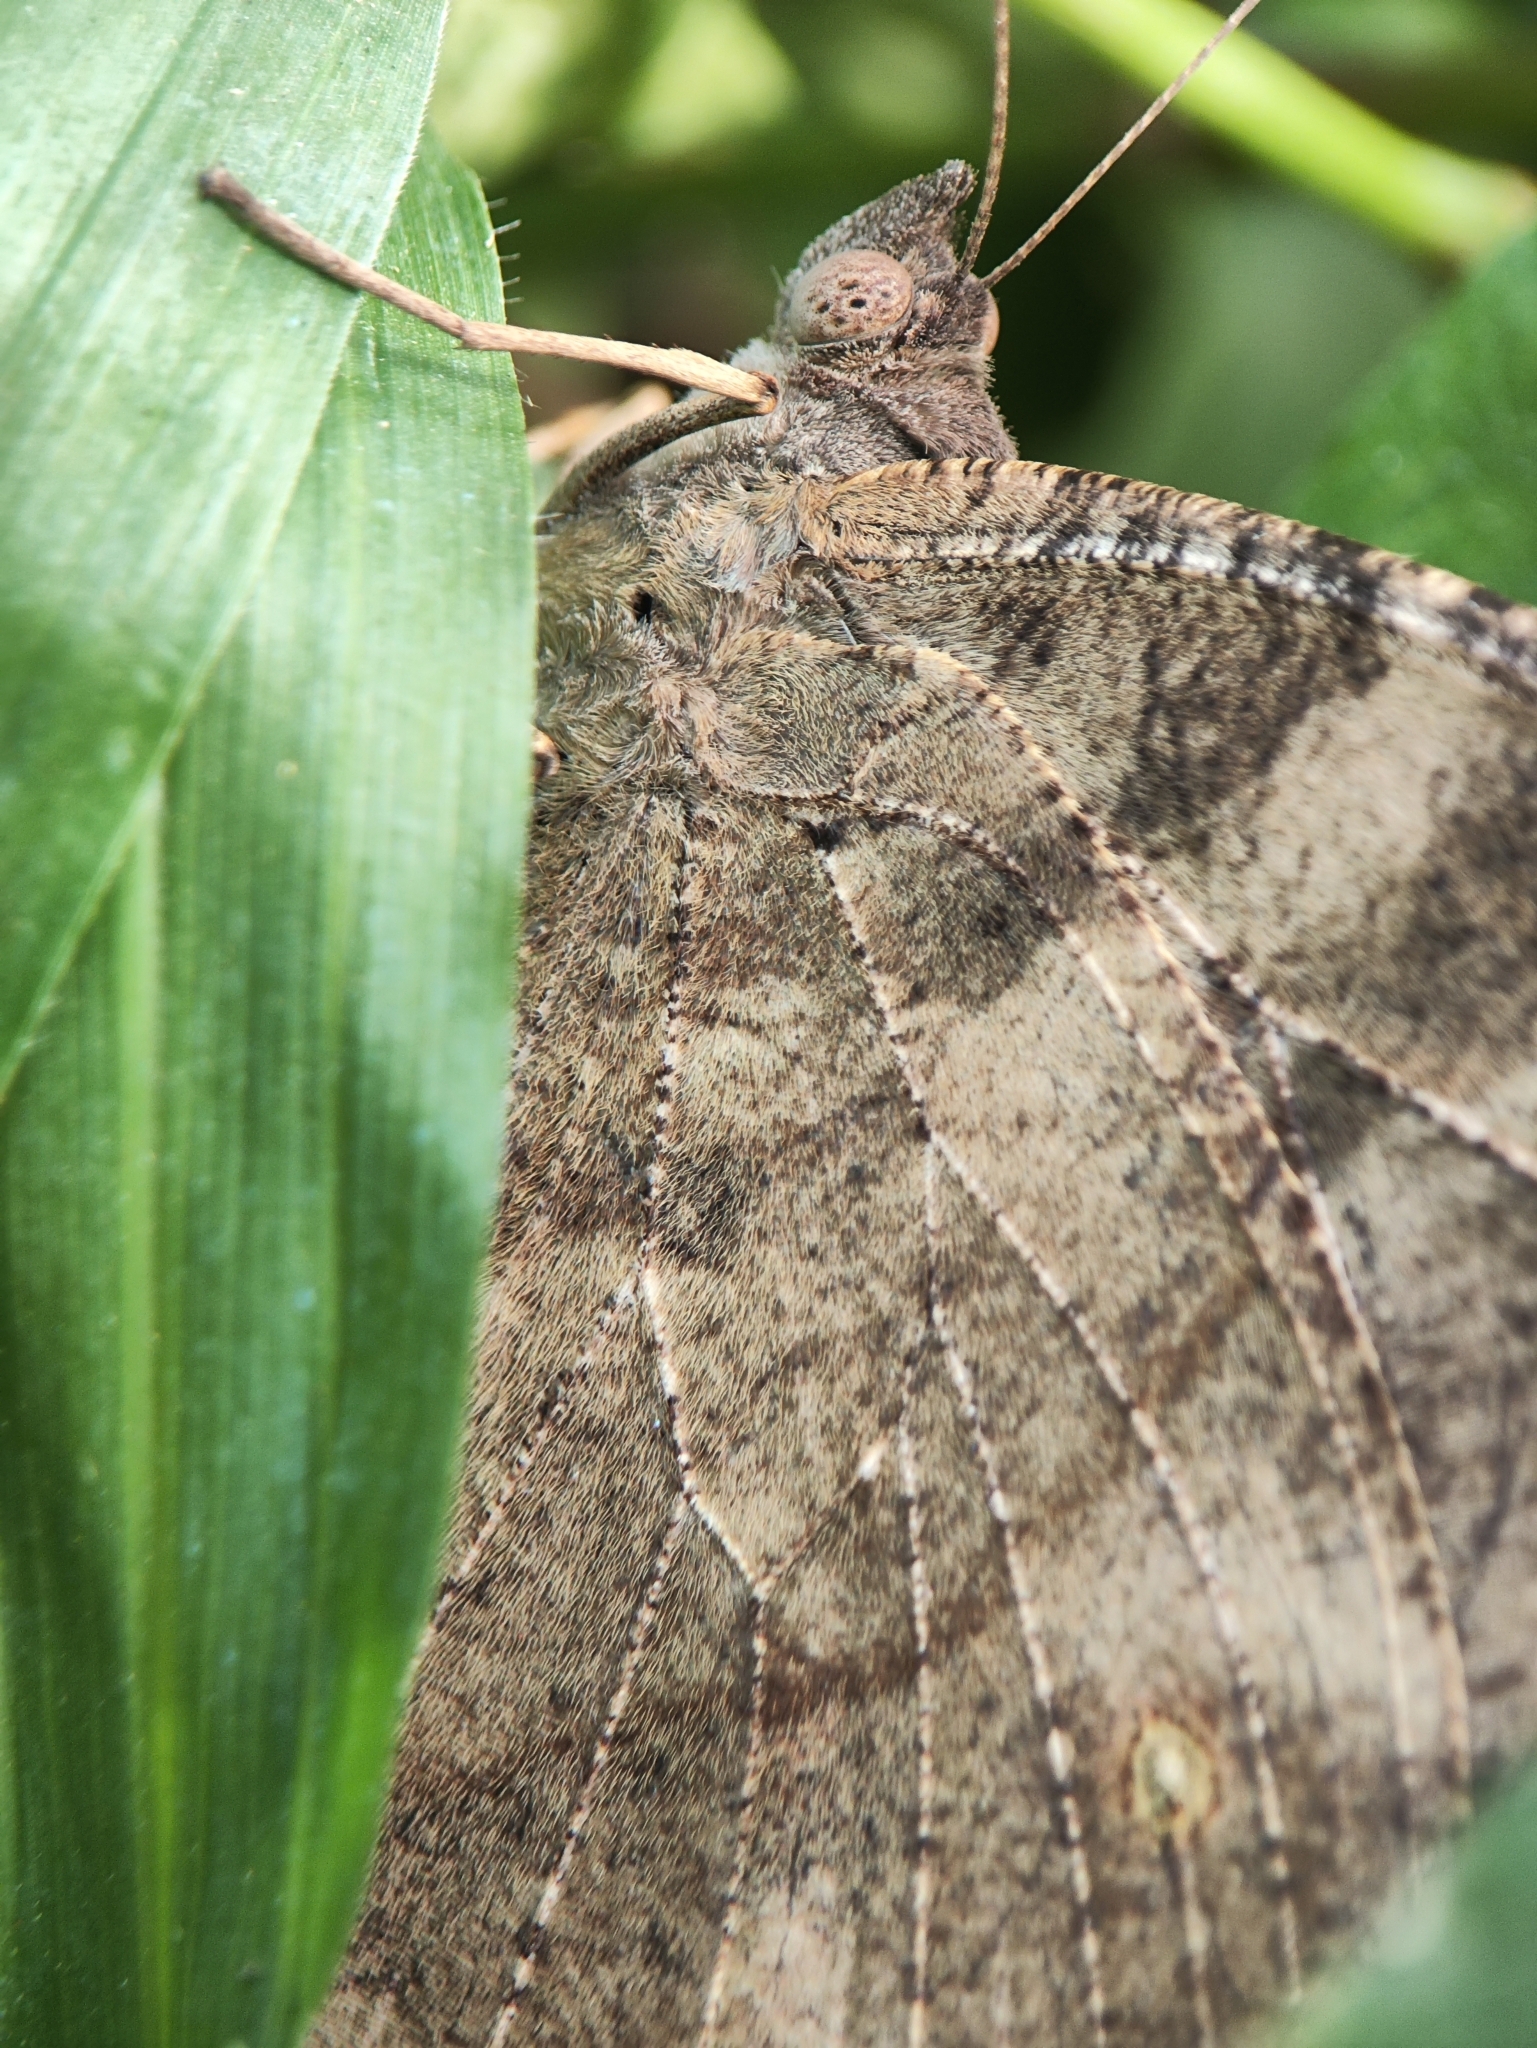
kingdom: Animalia
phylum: Arthropoda
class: Insecta
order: Lepidoptera
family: Nymphalidae
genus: Melanitis
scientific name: Melanitis leda
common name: Twilight brown
